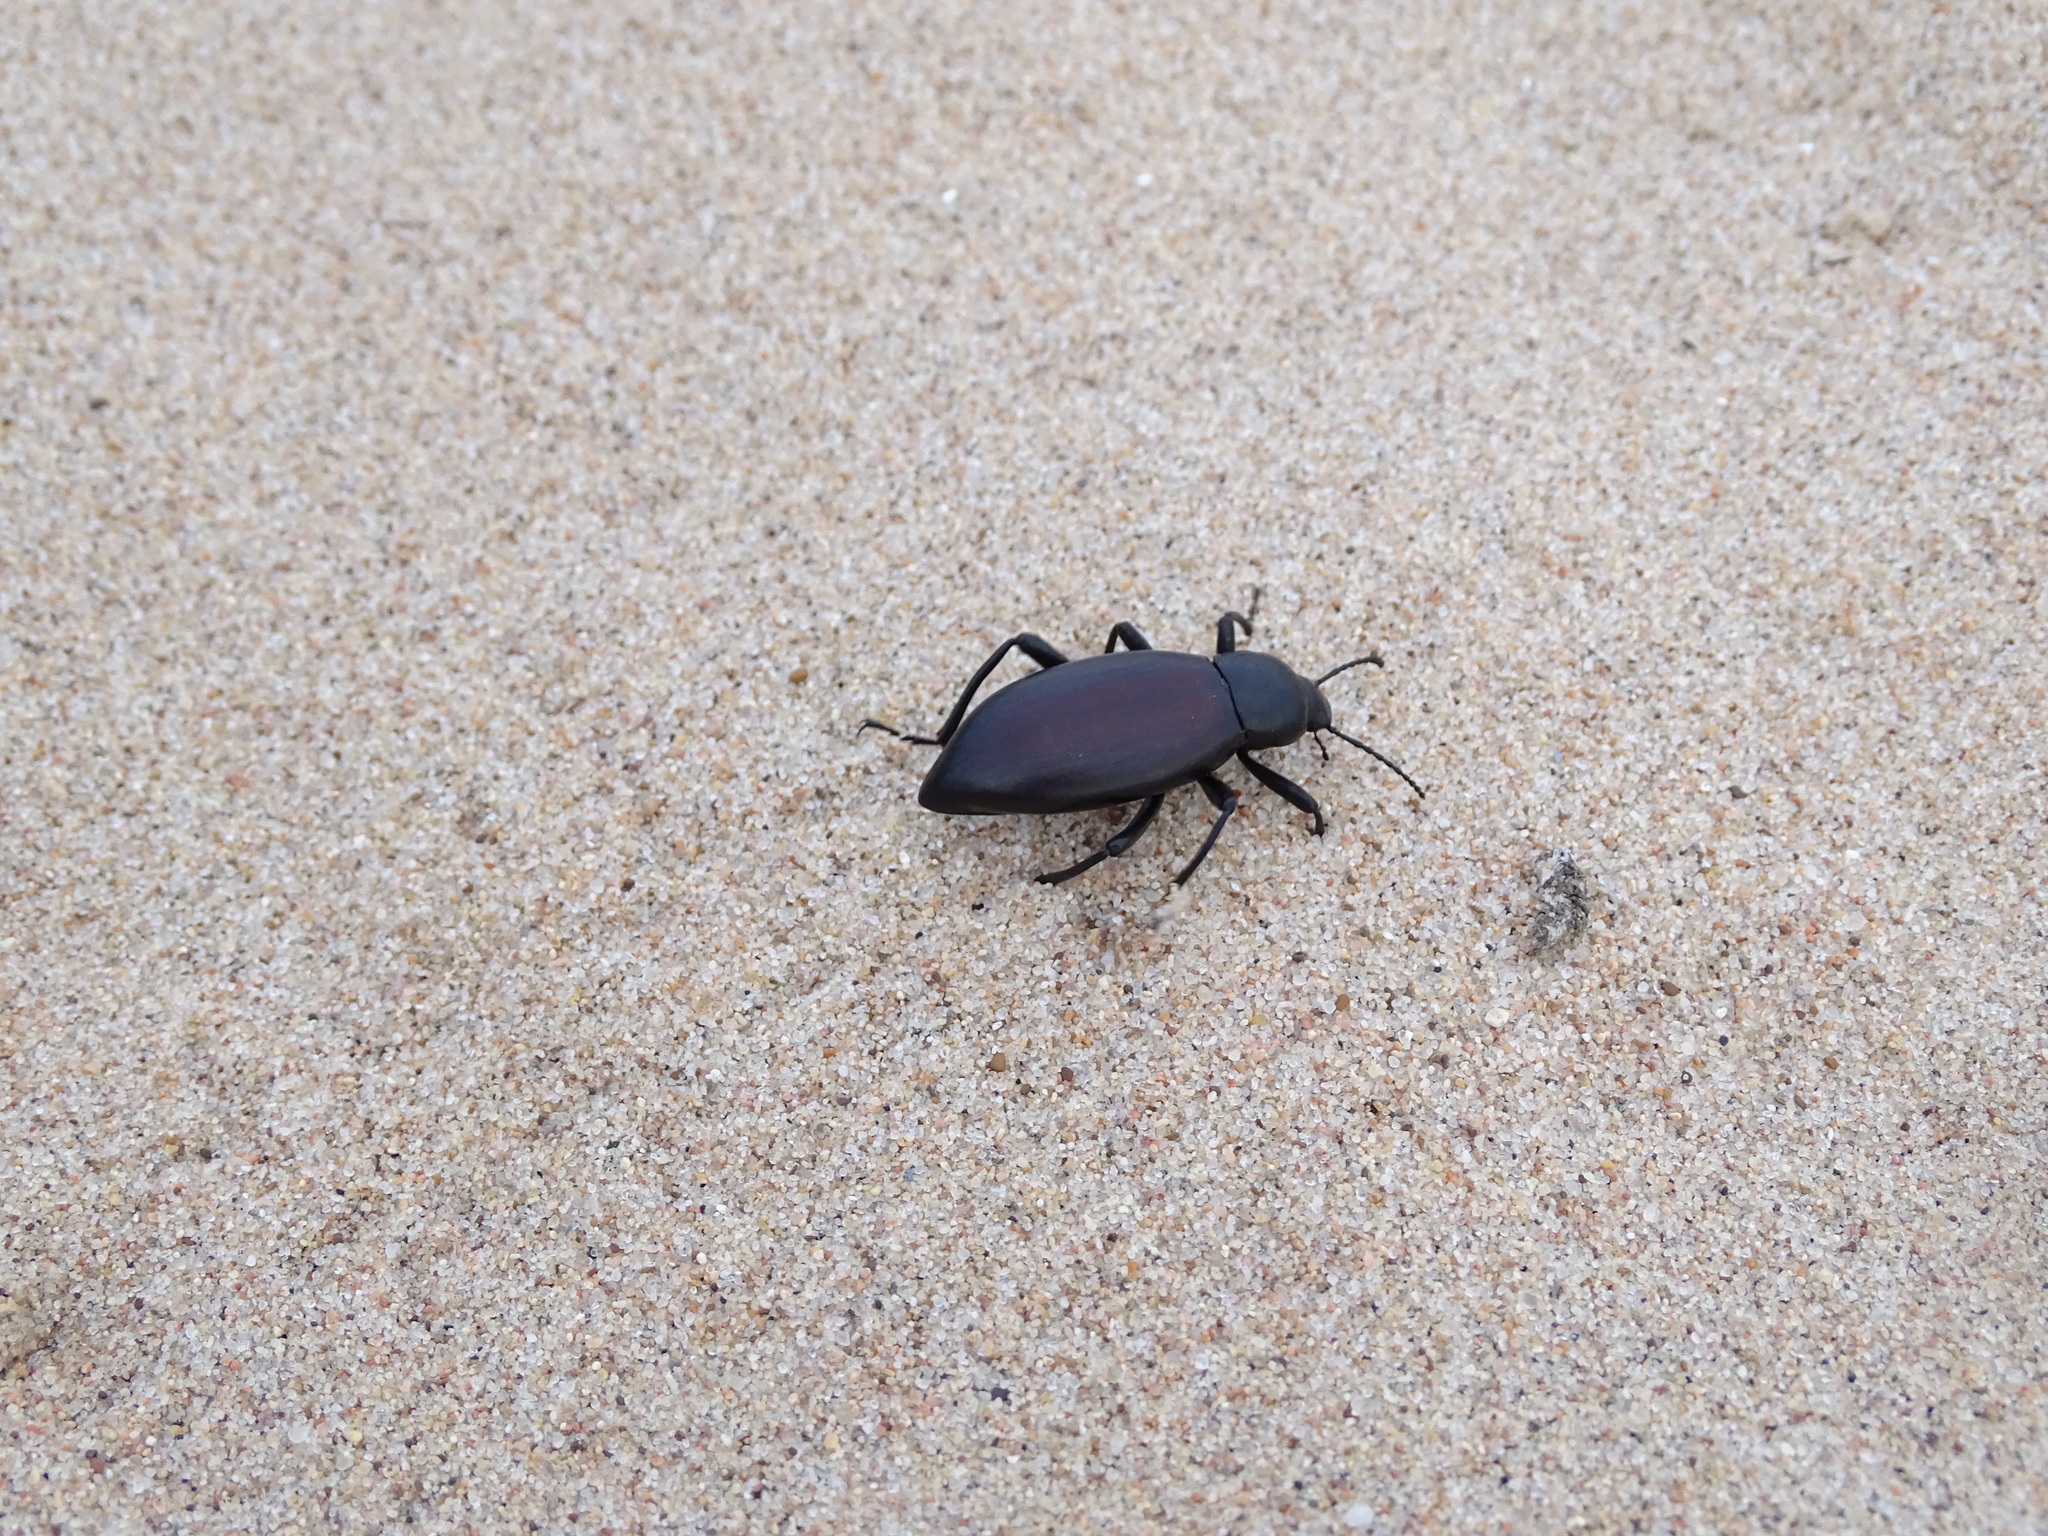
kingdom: Animalia
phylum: Arthropoda
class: Insecta
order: Coleoptera
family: Tenebrionidae
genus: Eleodes
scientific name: Eleodes longicollis
